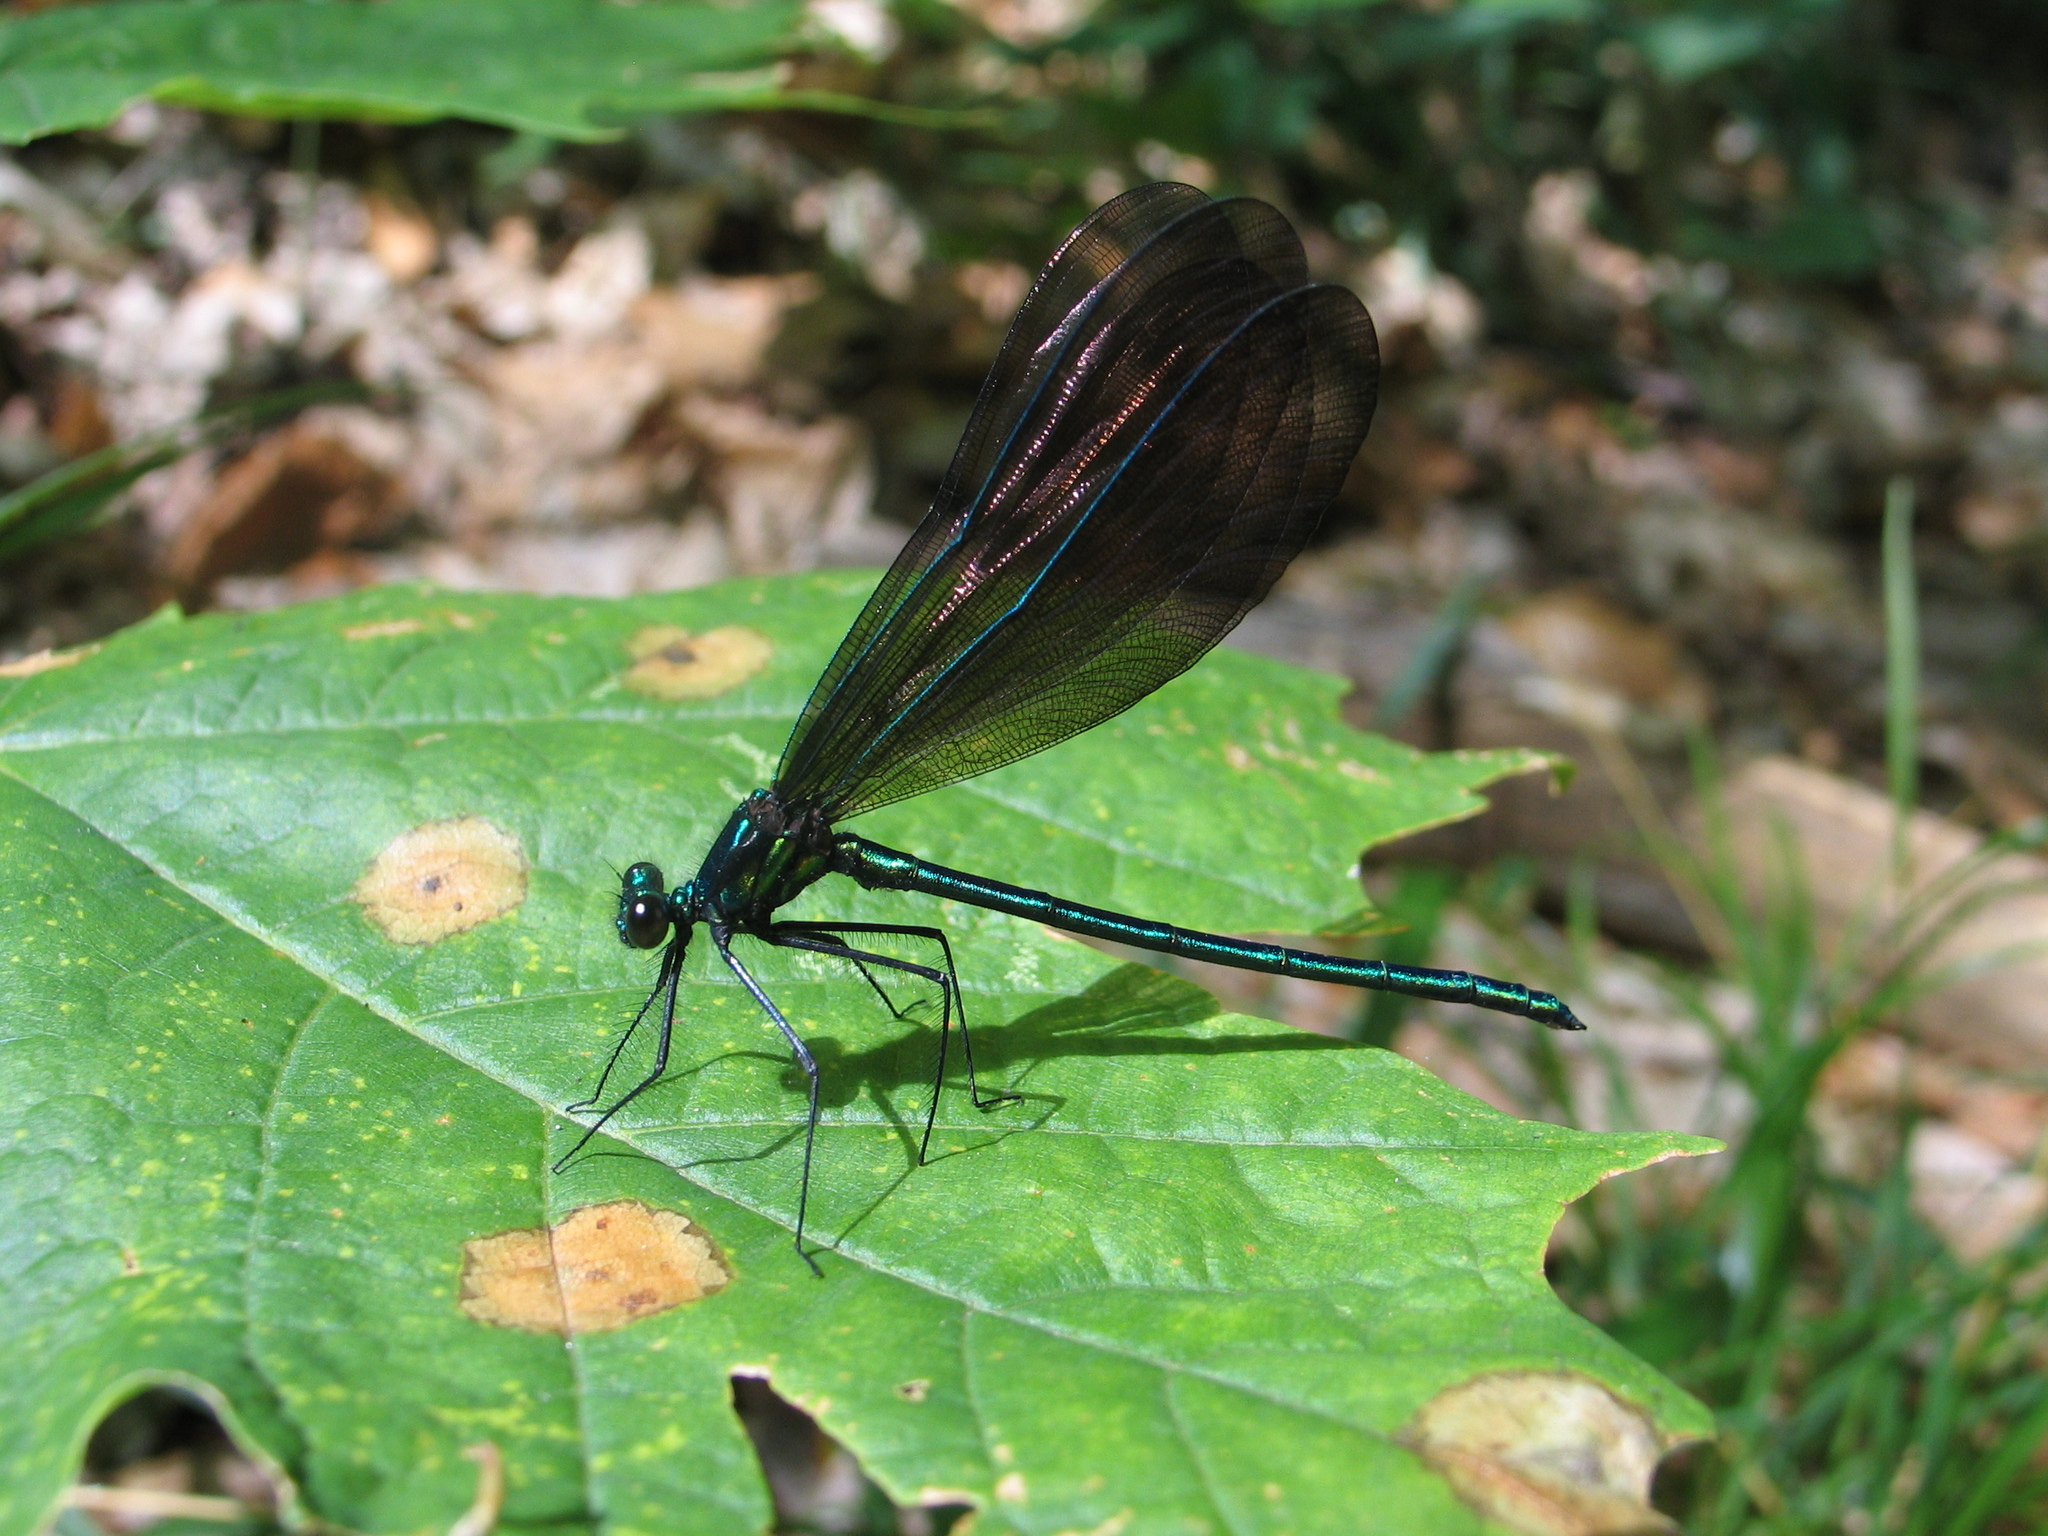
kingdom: Animalia
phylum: Arthropoda
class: Insecta
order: Odonata
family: Calopterygidae
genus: Calopteryx
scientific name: Calopteryx maculata
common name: Ebony jewelwing
